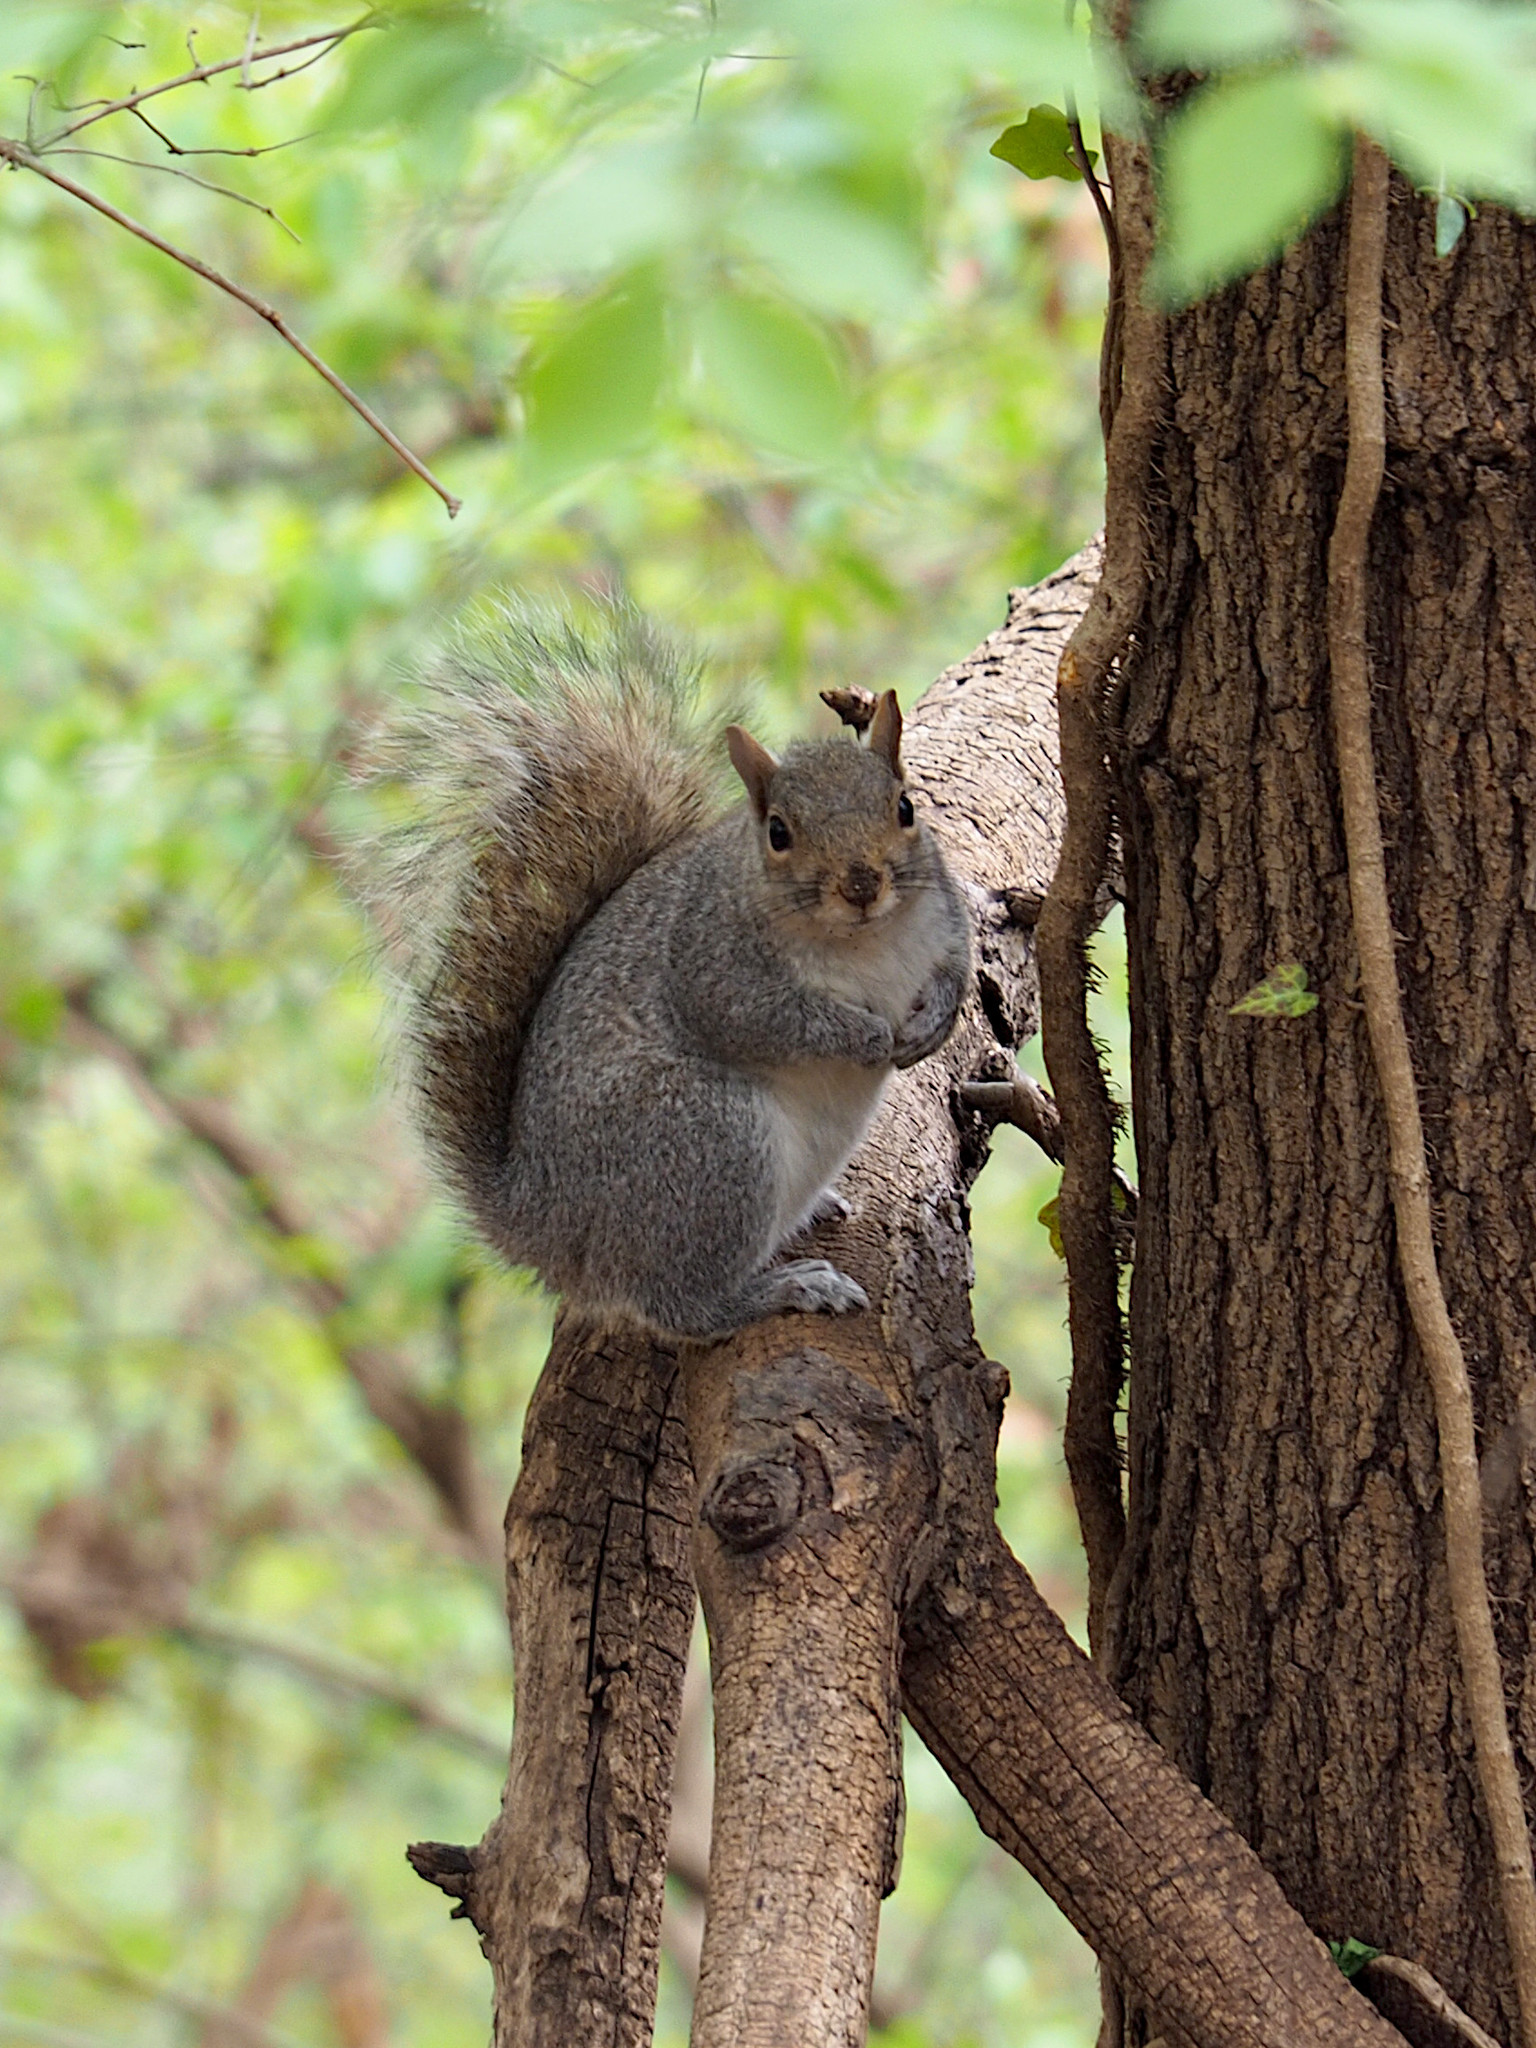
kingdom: Animalia
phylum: Chordata
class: Mammalia
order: Rodentia
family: Sciuridae
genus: Sciurus
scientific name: Sciurus carolinensis
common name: Eastern gray squirrel
